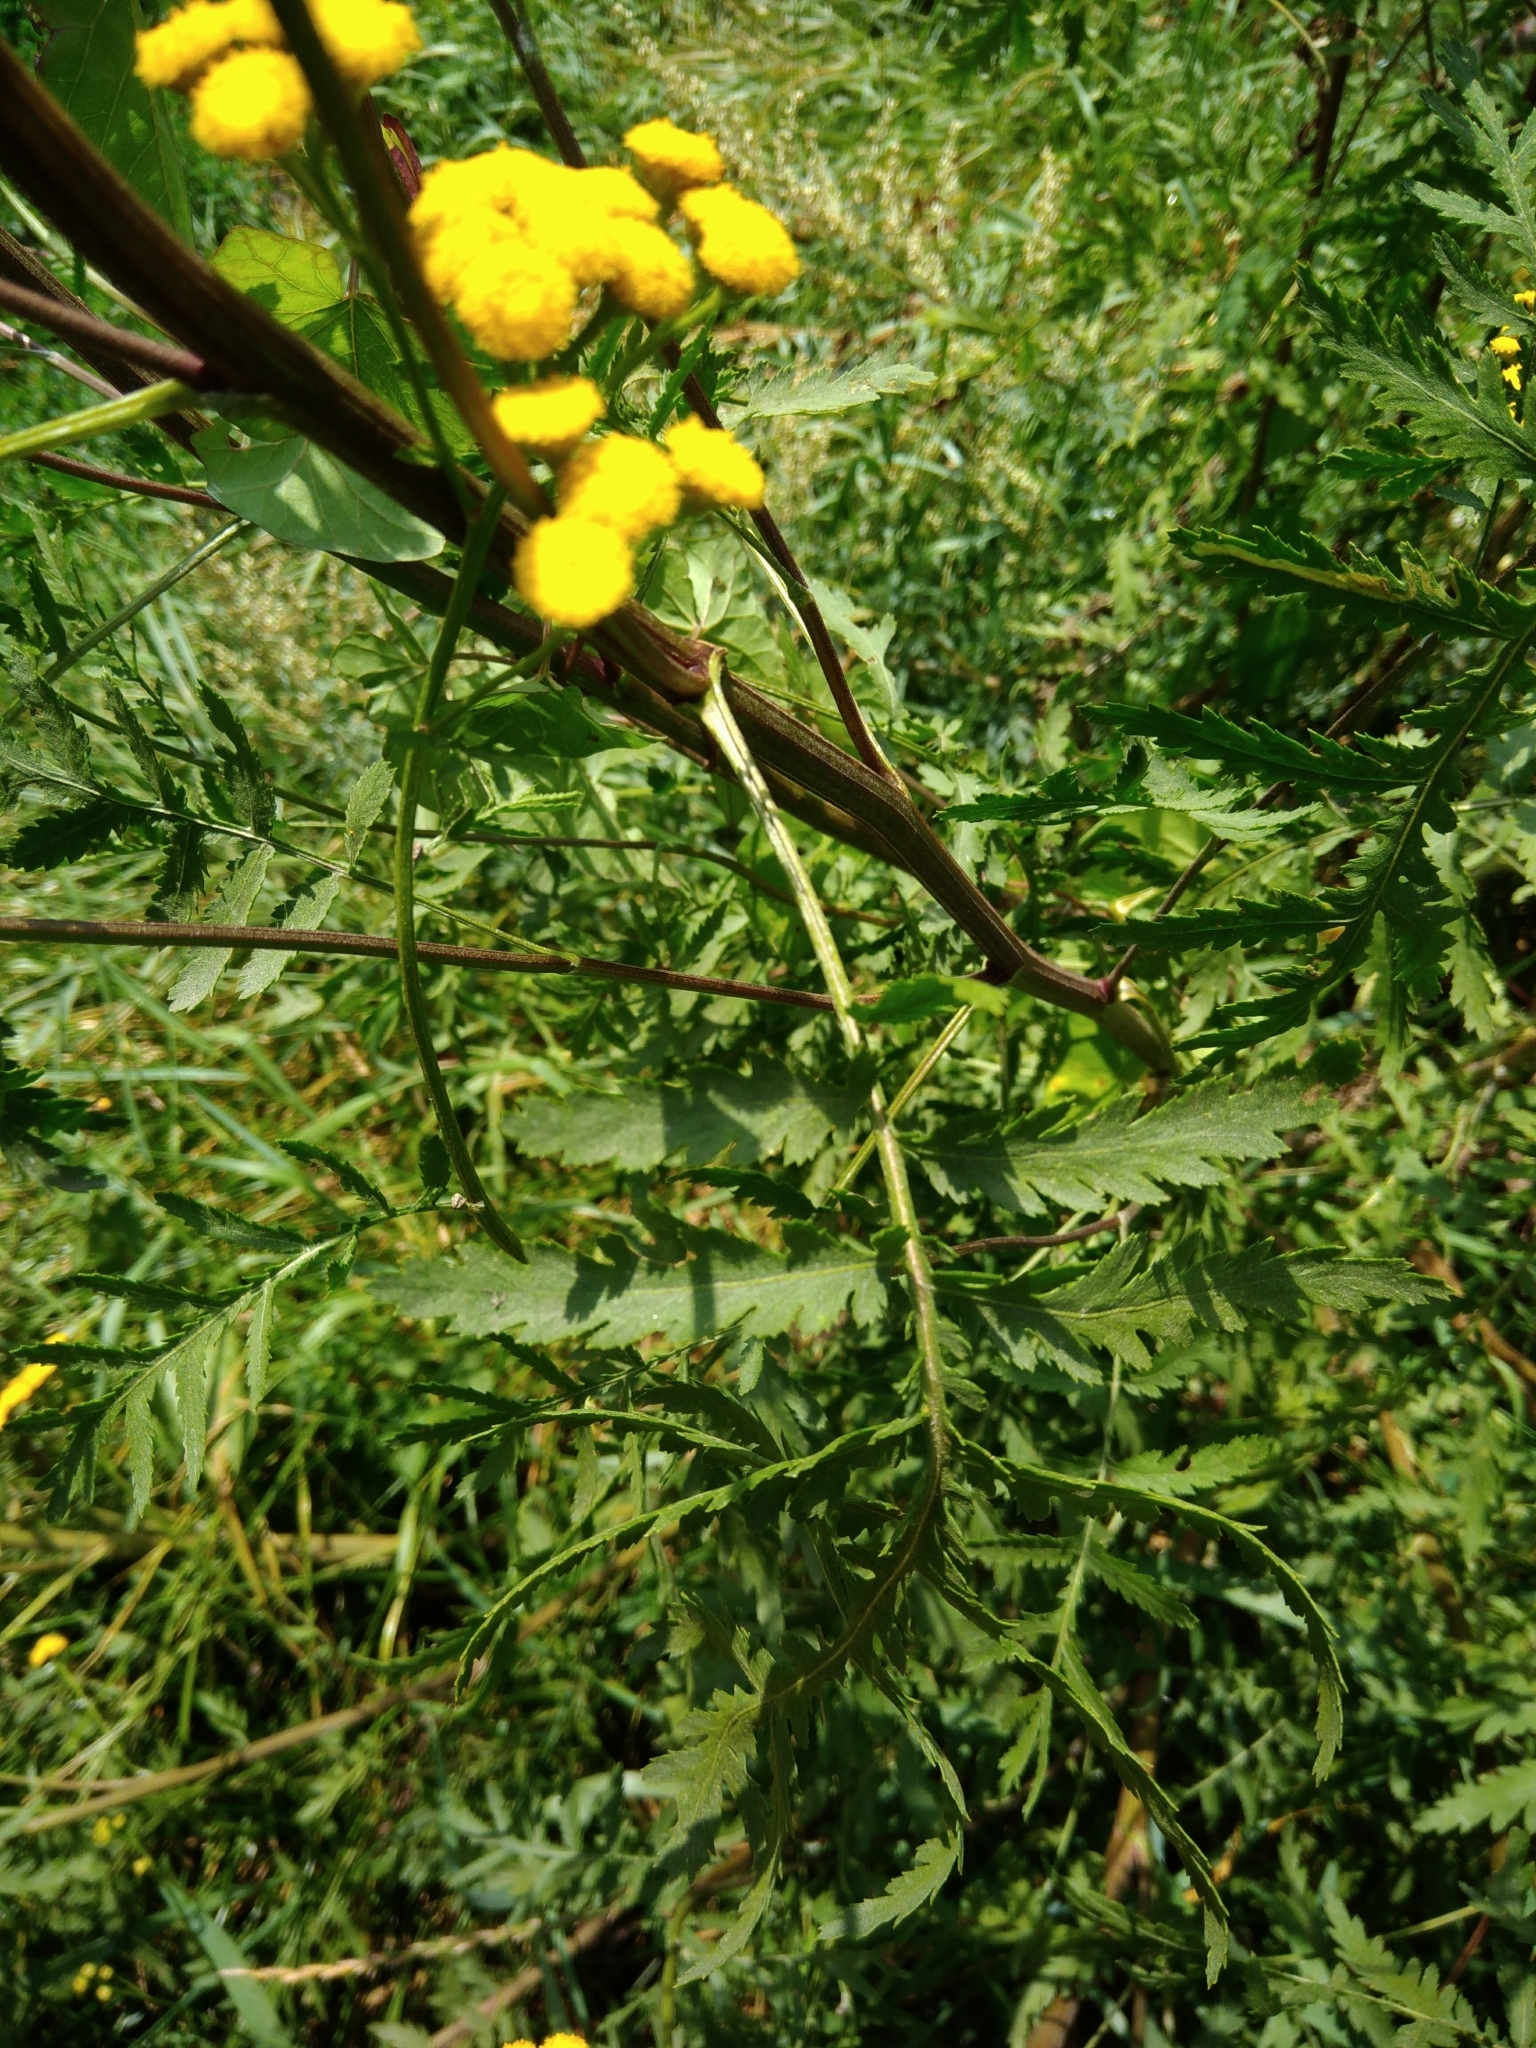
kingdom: Plantae
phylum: Tracheophyta
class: Magnoliopsida
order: Asterales
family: Asteraceae
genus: Tanacetum
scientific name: Tanacetum vulgare
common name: Common tansy
